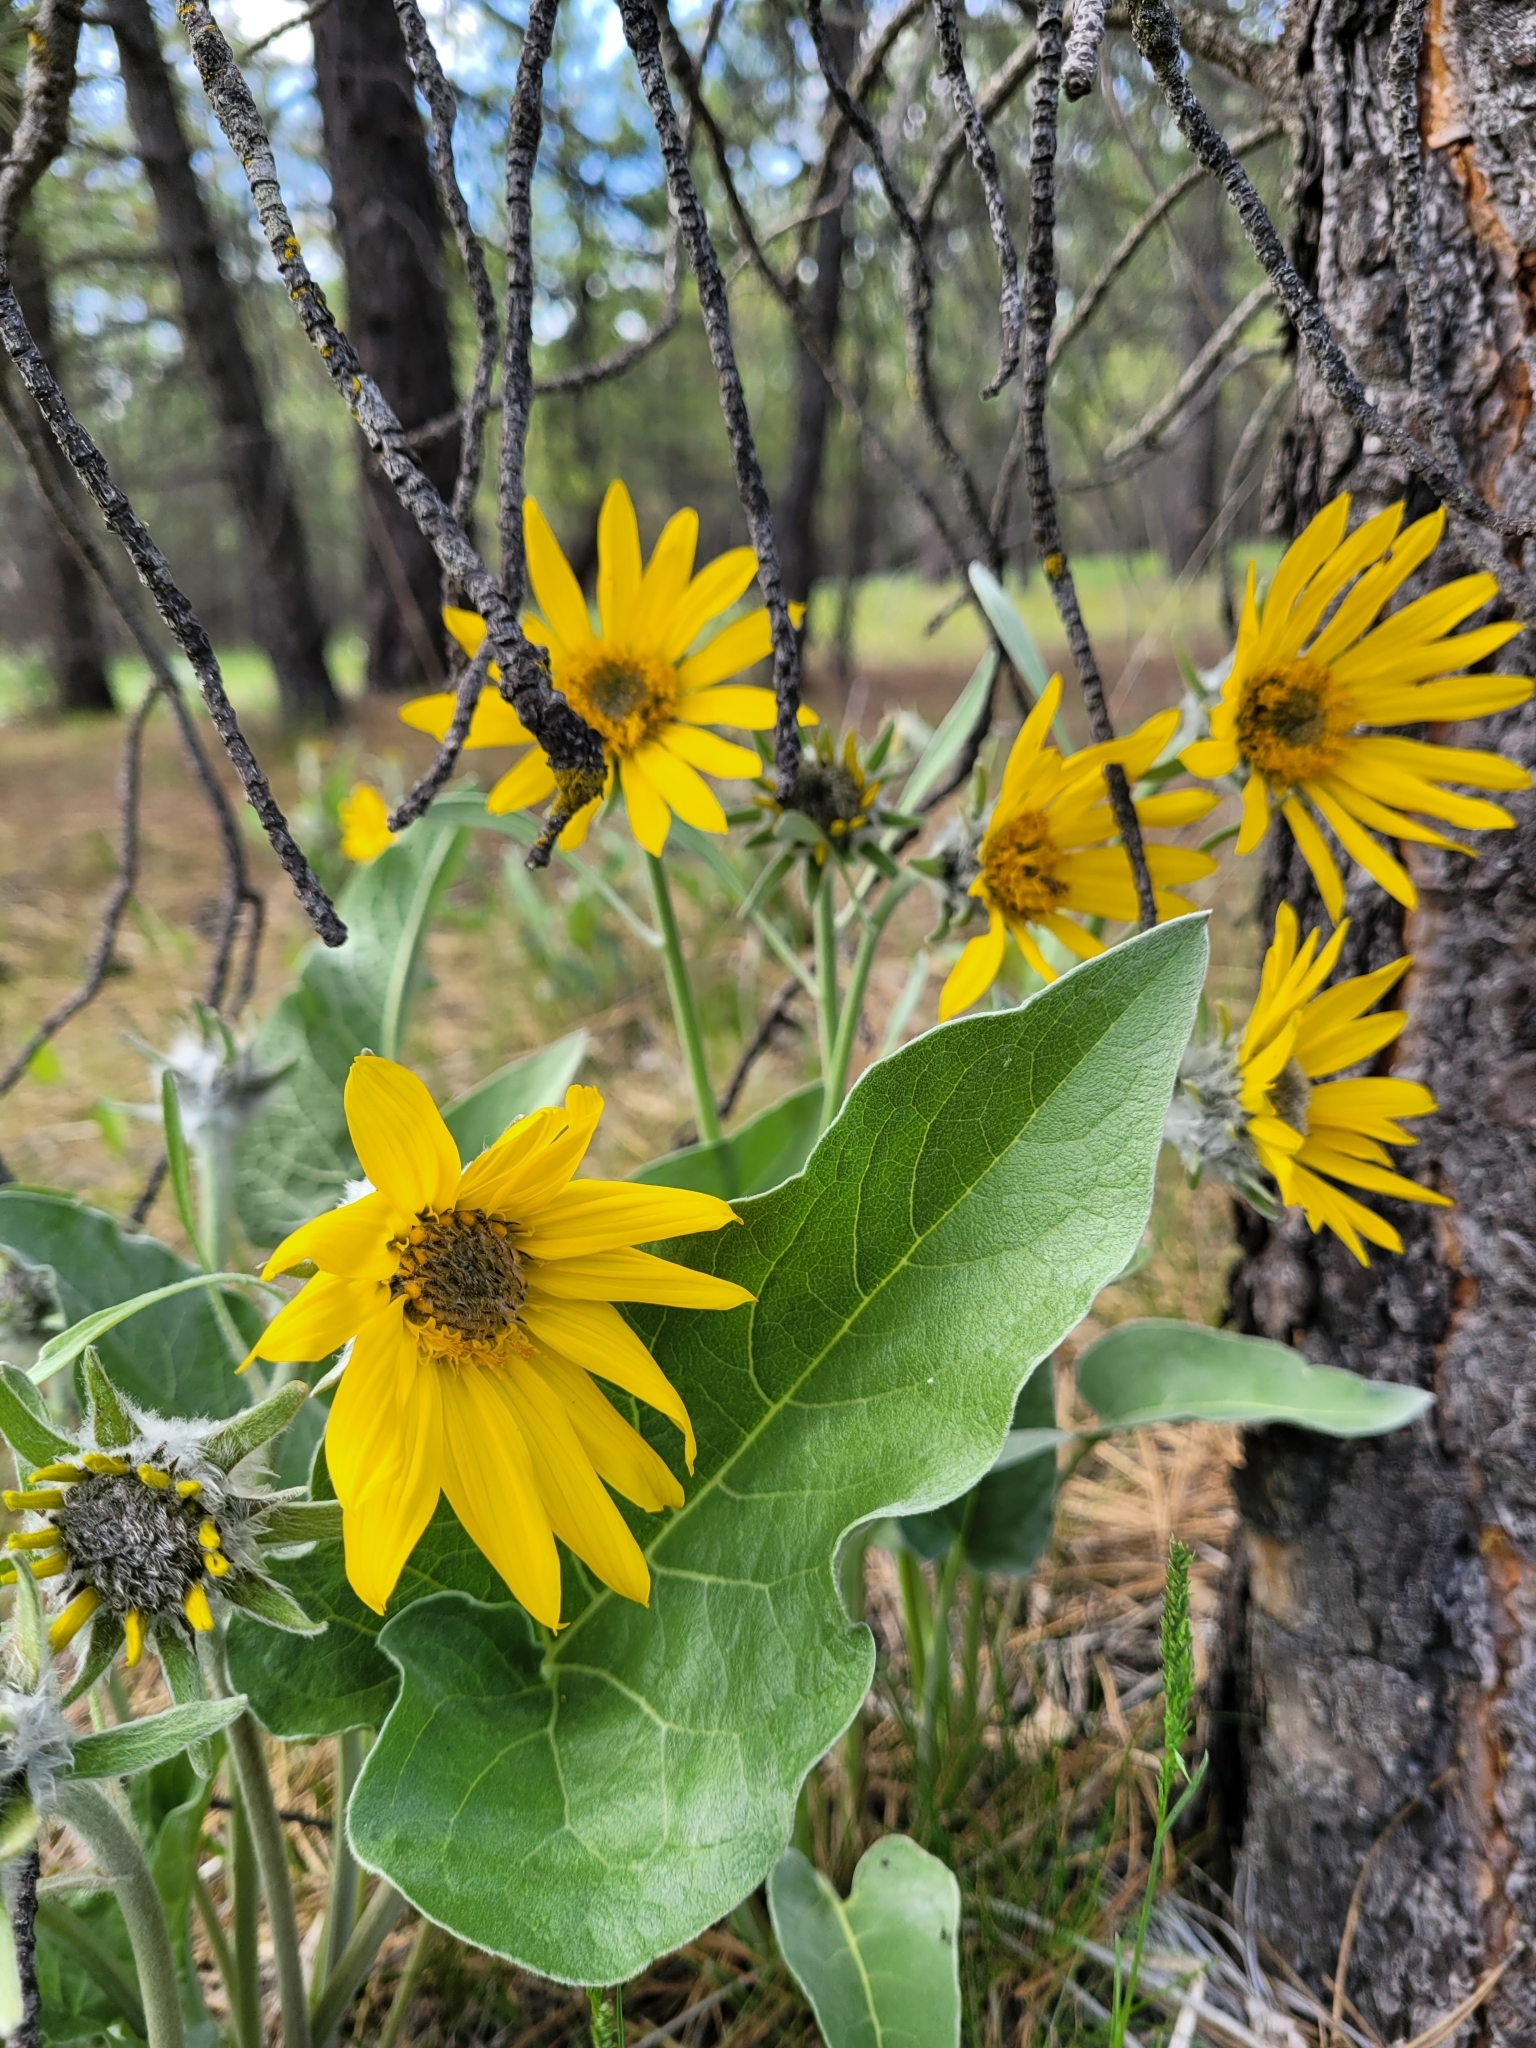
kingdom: Plantae
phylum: Tracheophyta
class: Magnoliopsida
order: Asterales
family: Asteraceae
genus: Wyethia
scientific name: Wyethia sagittata
